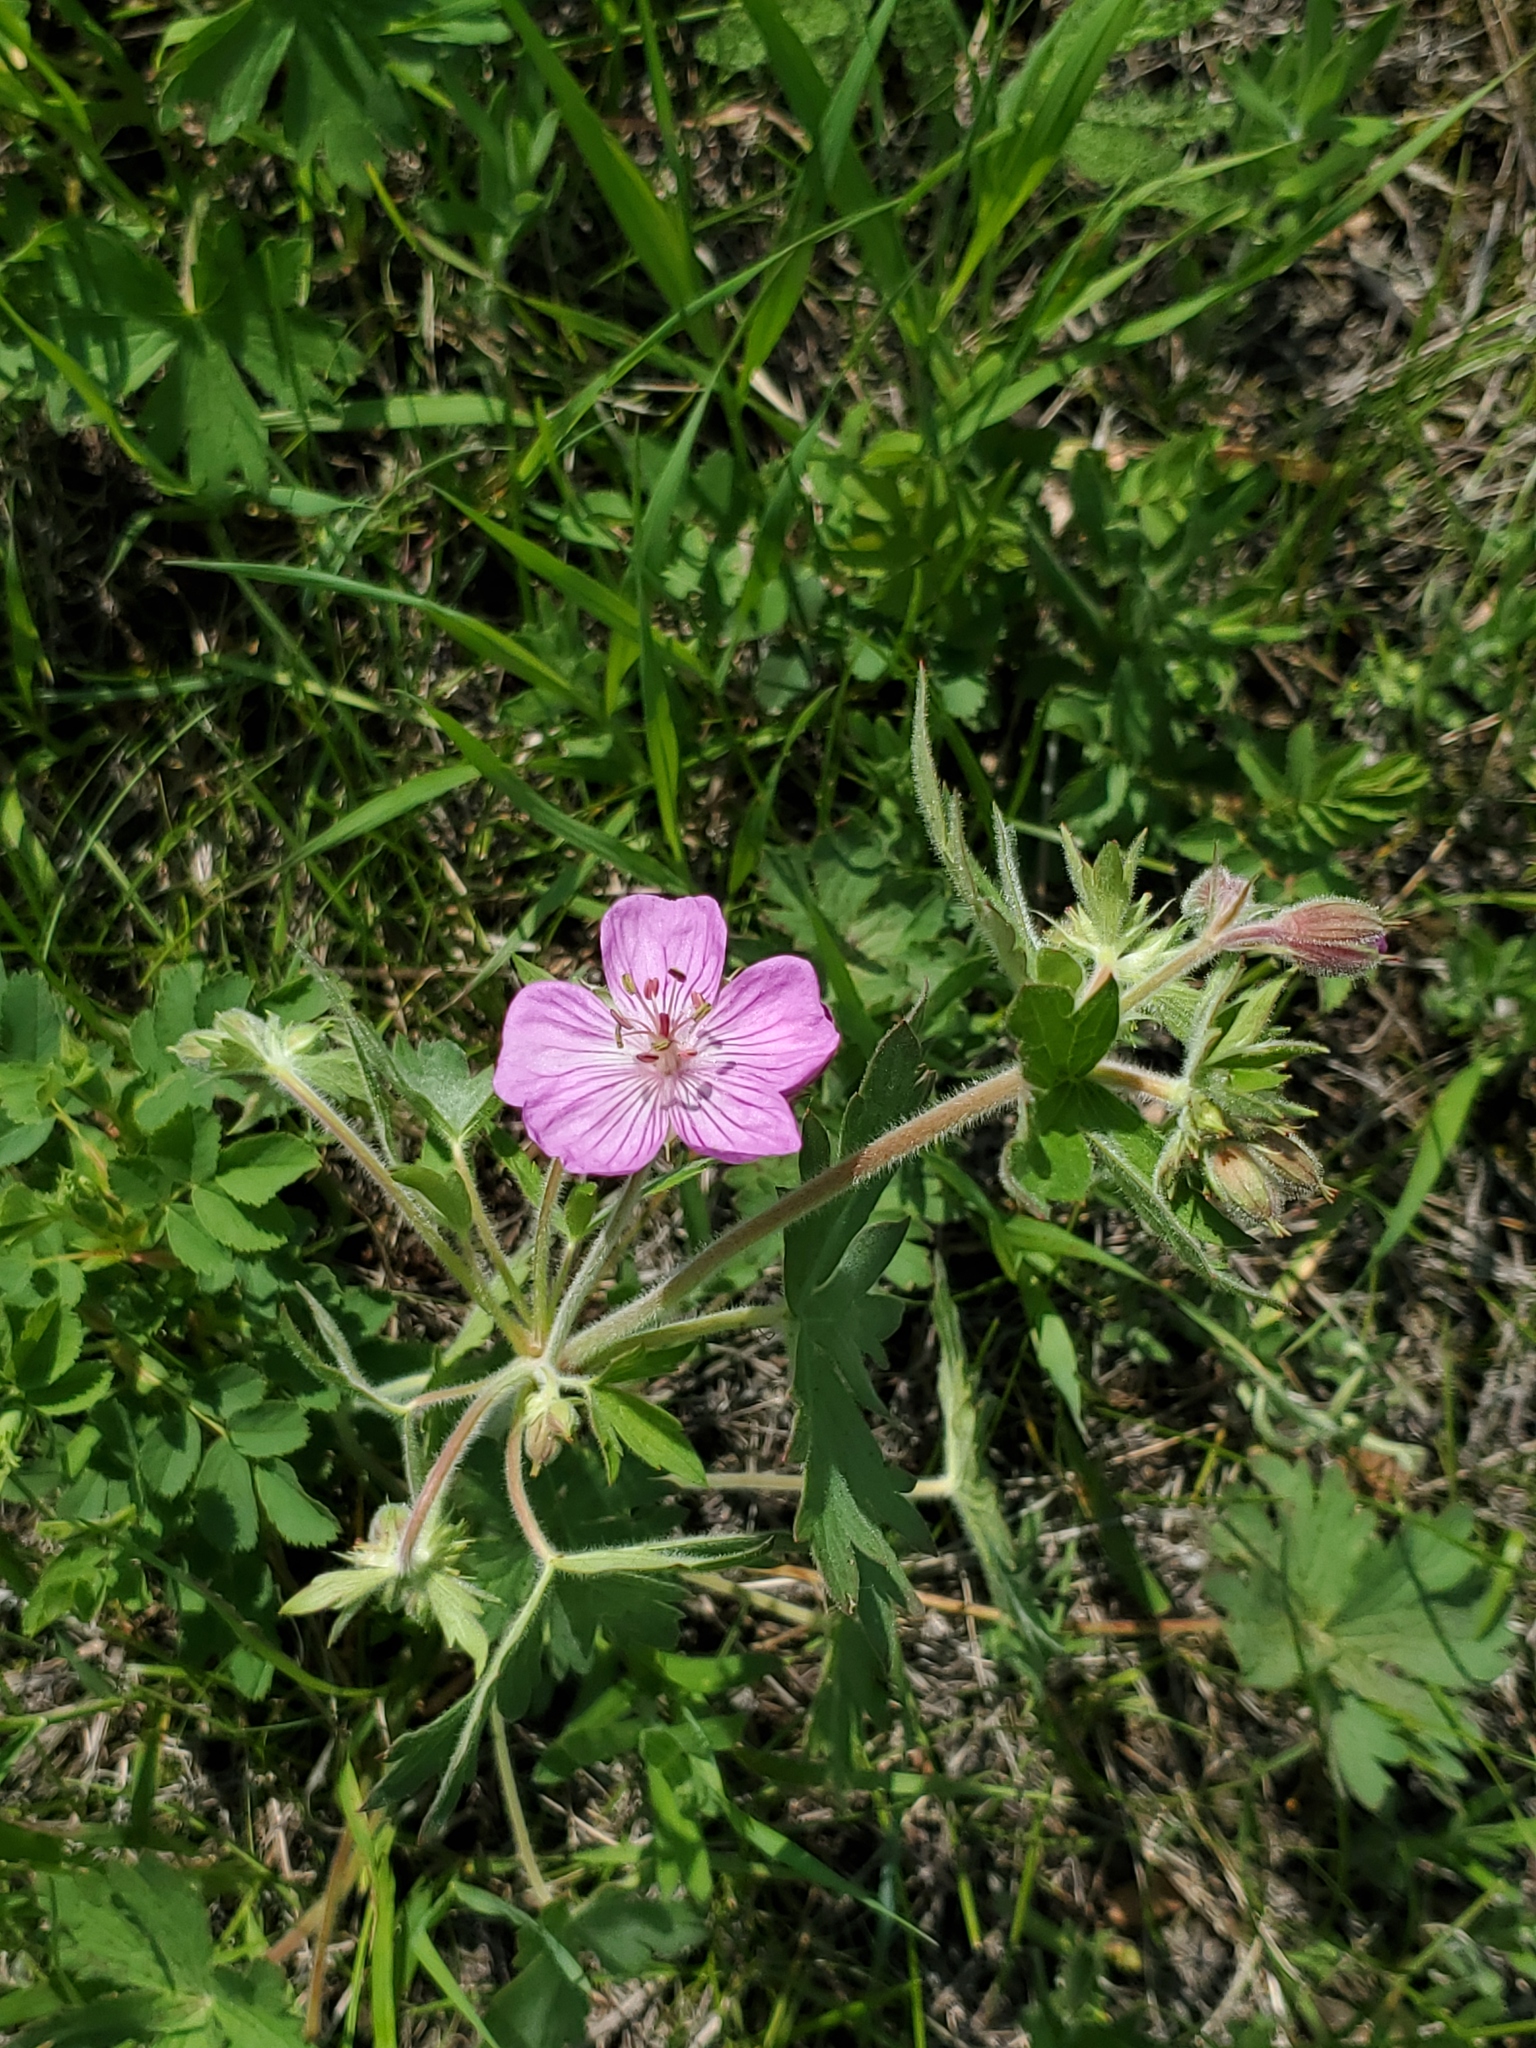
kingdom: Plantae
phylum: Tracheophyta
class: Magnoliopsida
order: Geraniales
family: Geraniaceae
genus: Geranium
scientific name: Geranium viscosissimum
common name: Purple geranium
